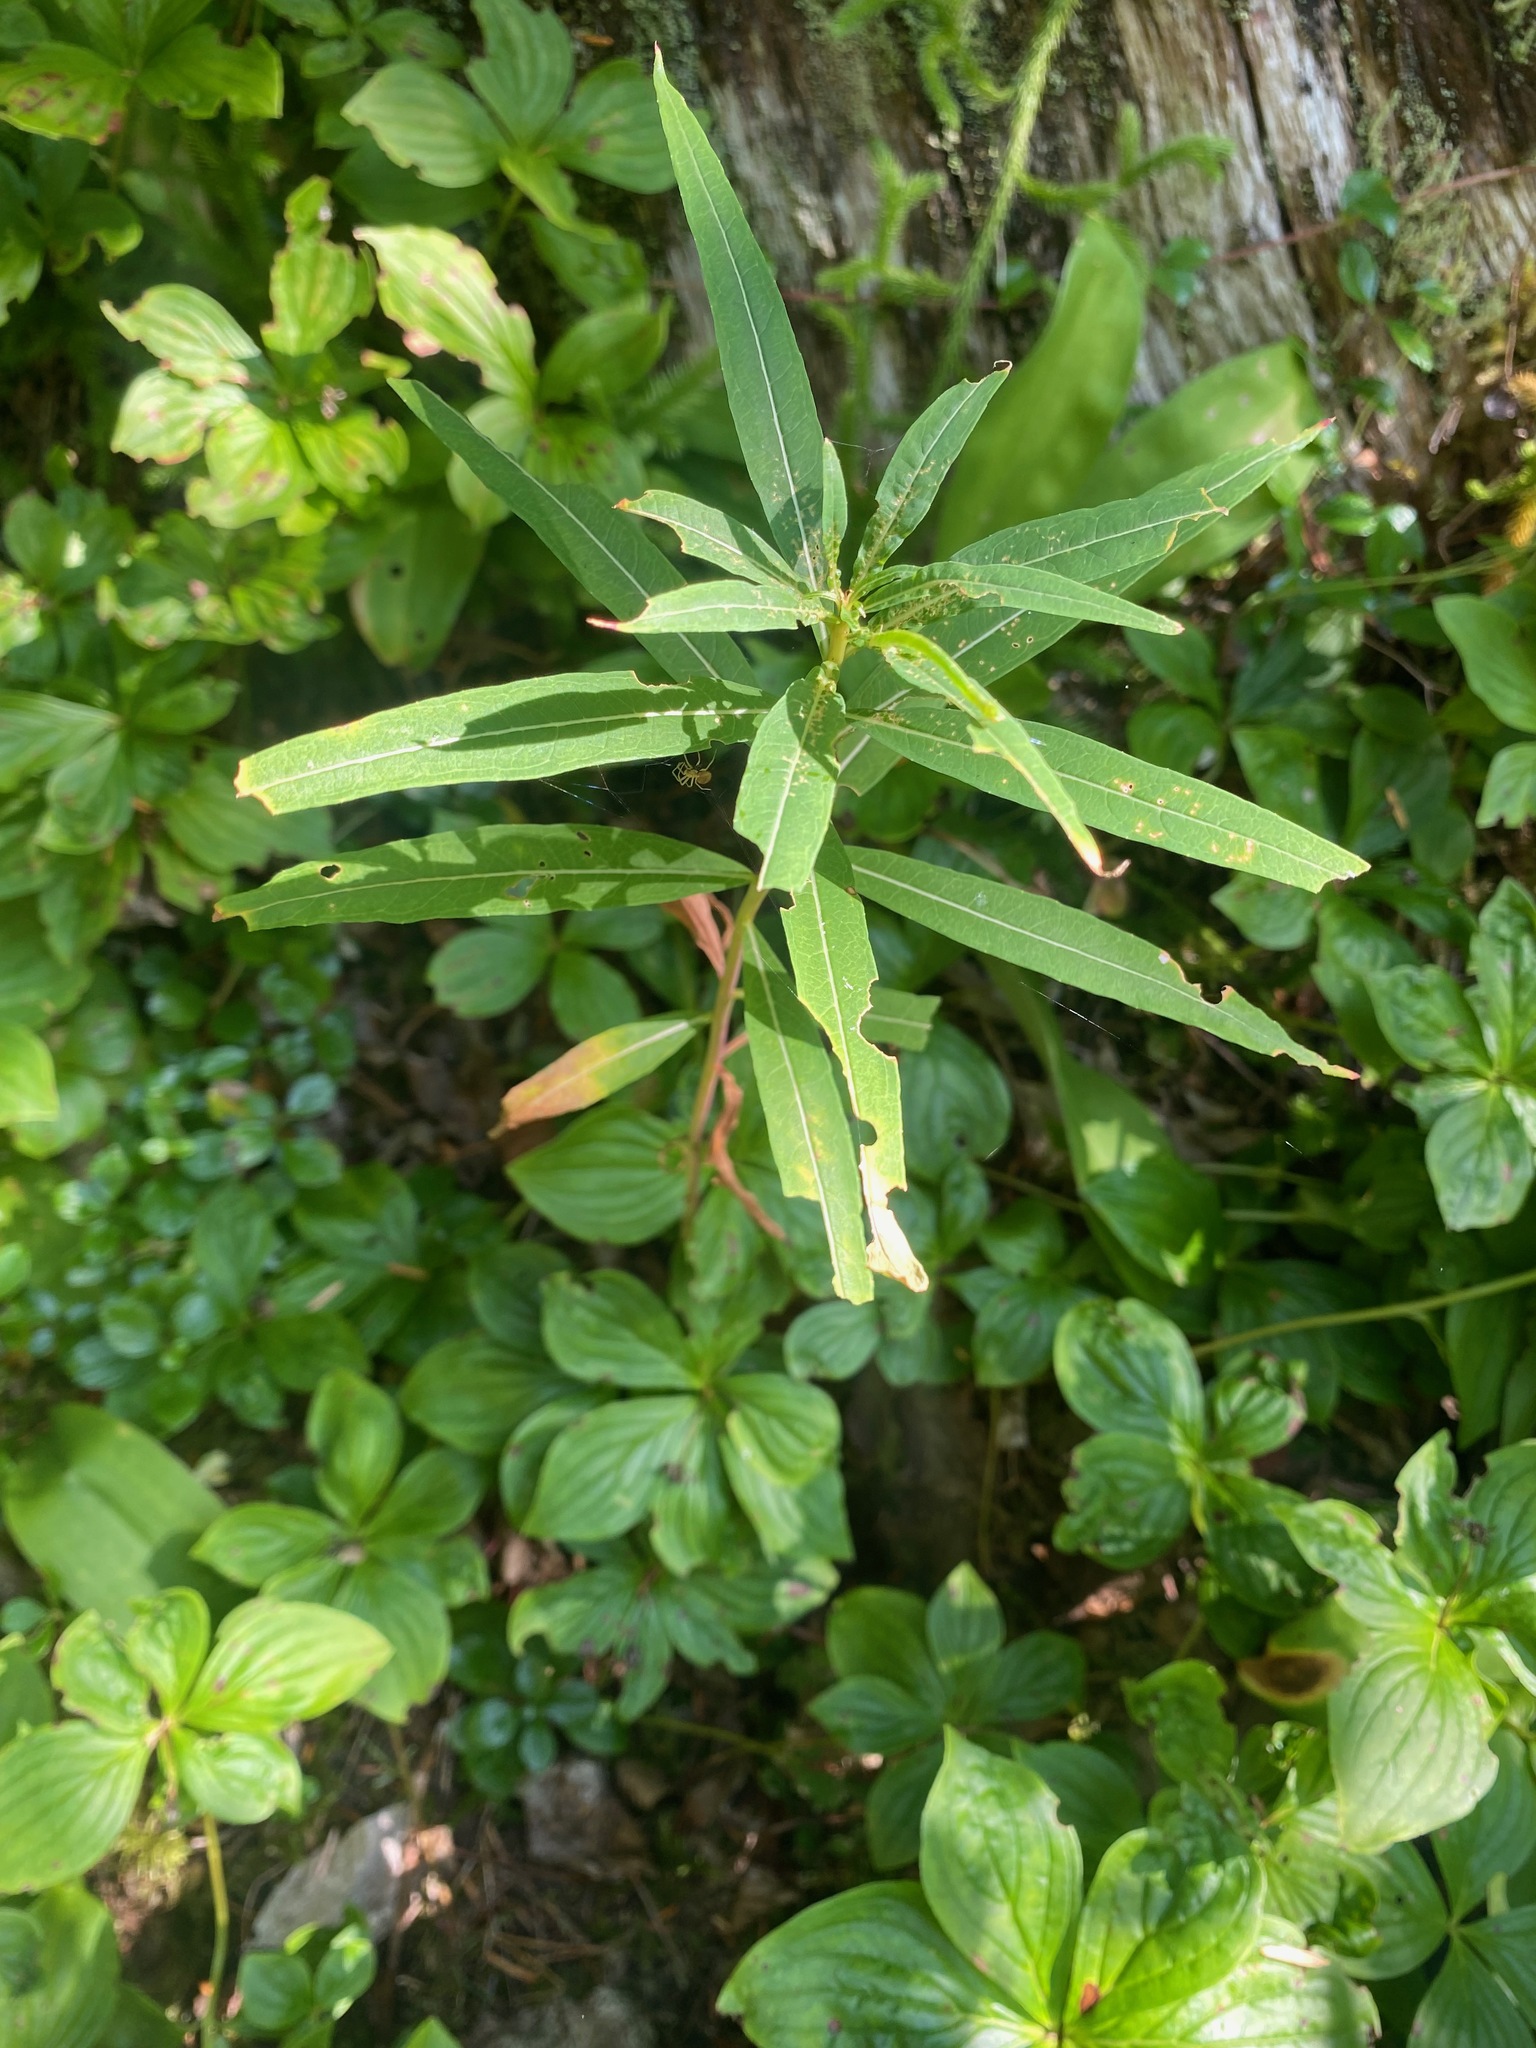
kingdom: Plantae
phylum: Tracheophyta
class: Magnoliopsida
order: Myrtales
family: Onagraceae
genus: Chamaenerion
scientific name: Chamaenerion angustifolium
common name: Fireweed
